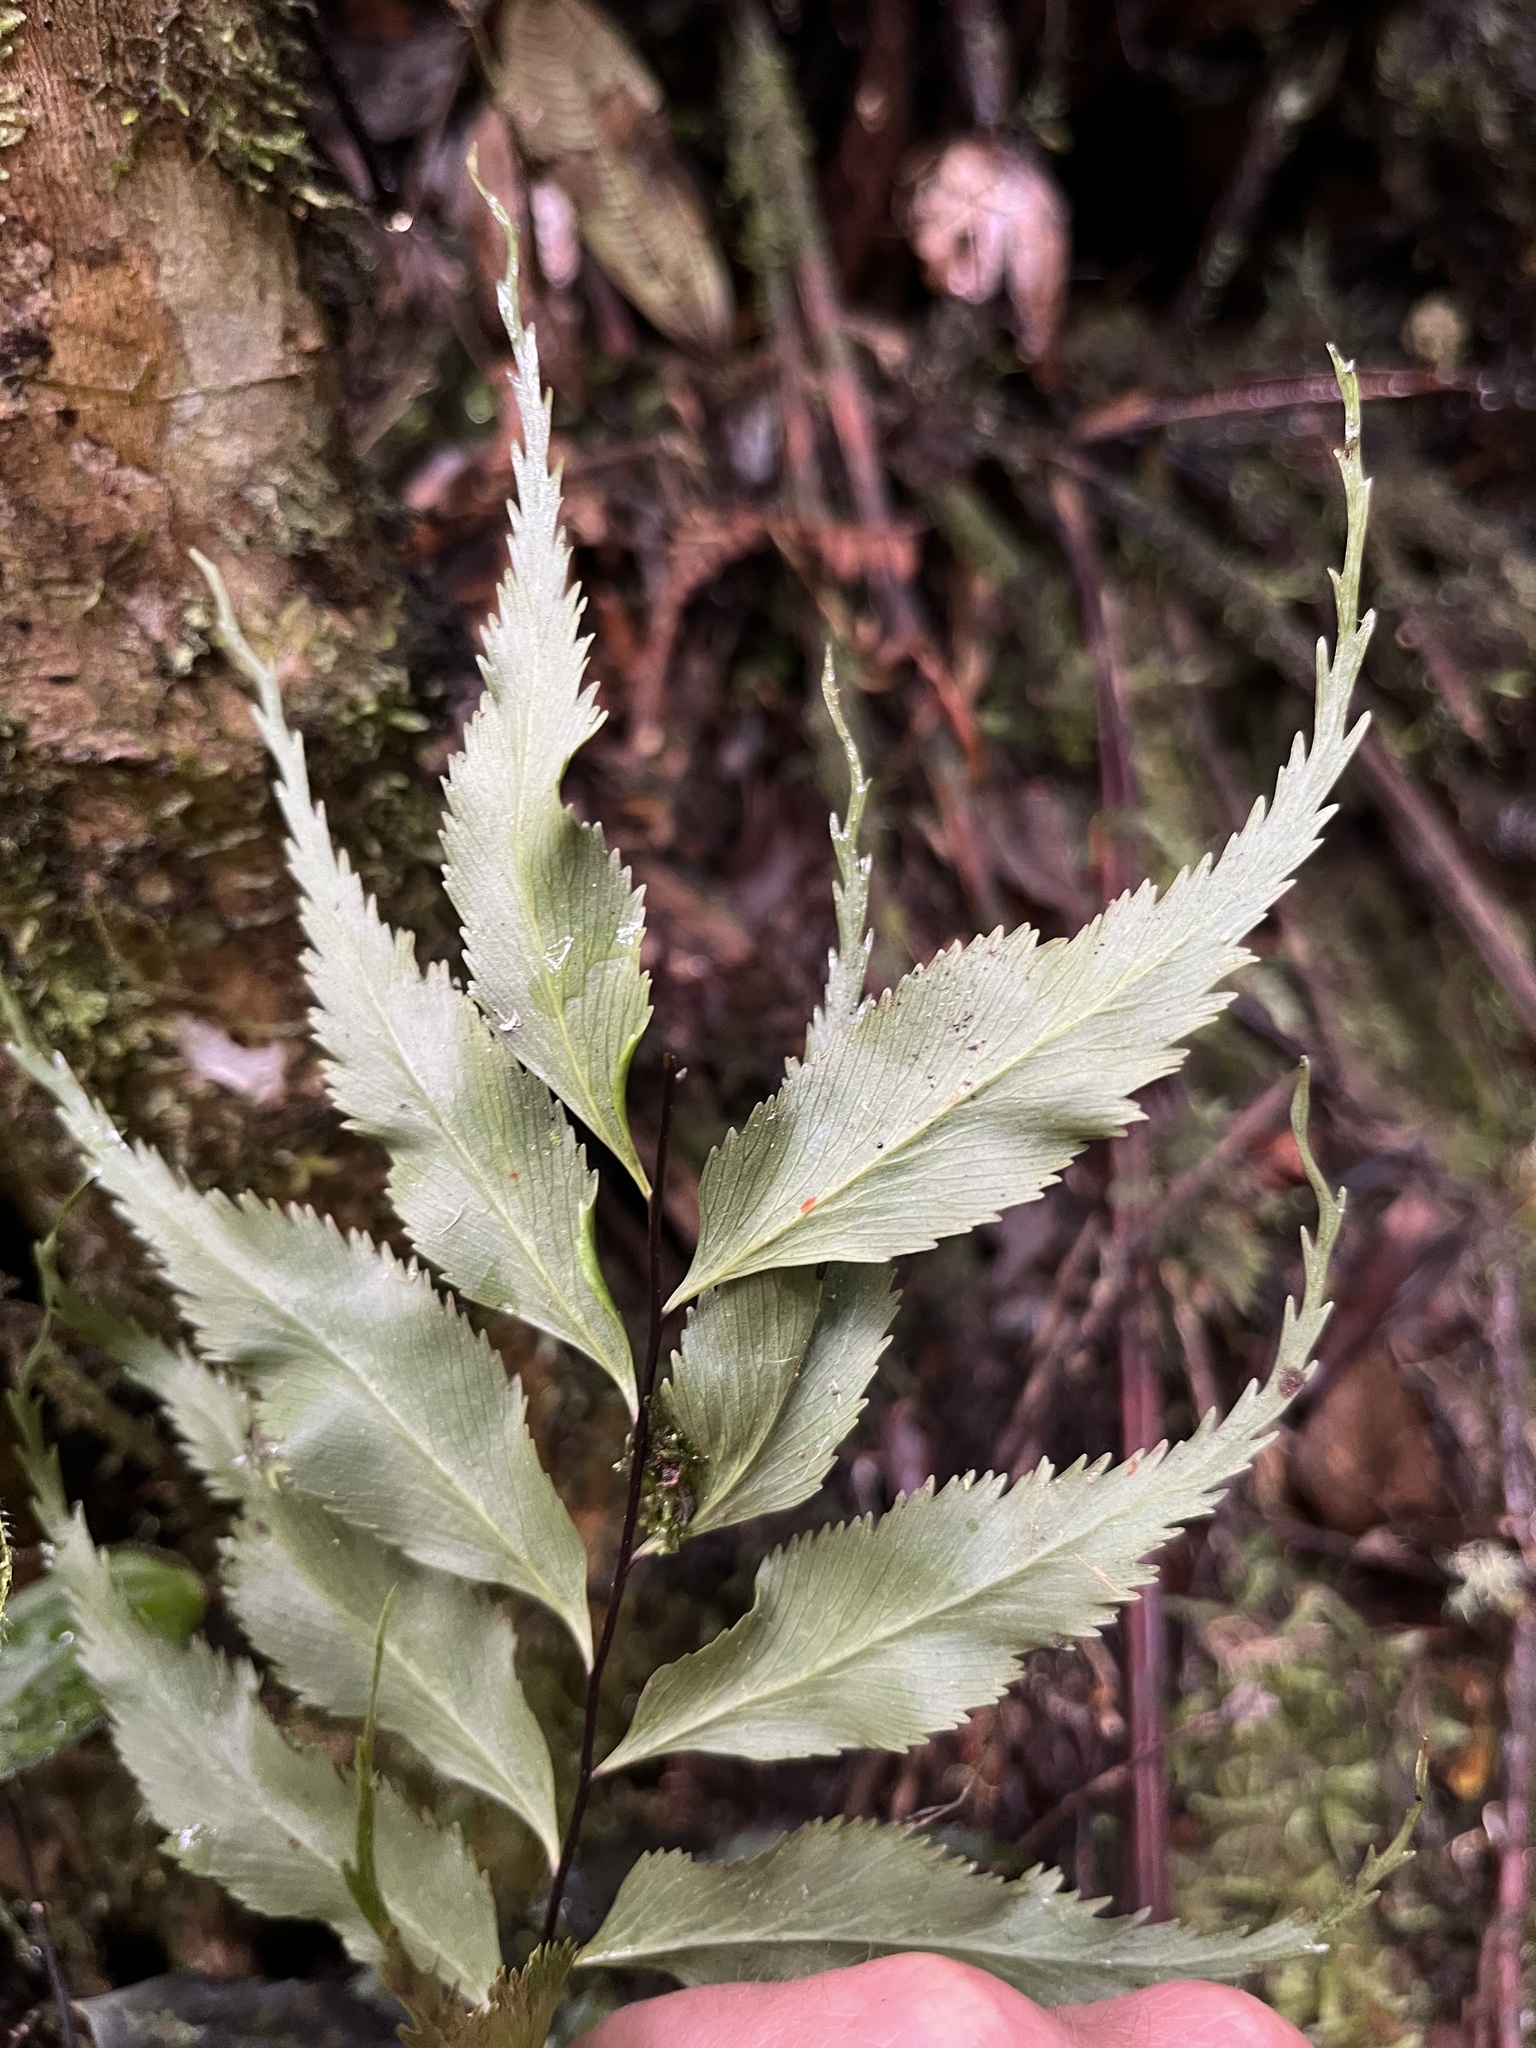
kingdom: Plantae
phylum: Tracheophyta
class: Polypodiopsida
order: Polypodiales
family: Aspleniaceae
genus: Asplenium
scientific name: Asplenium serra
